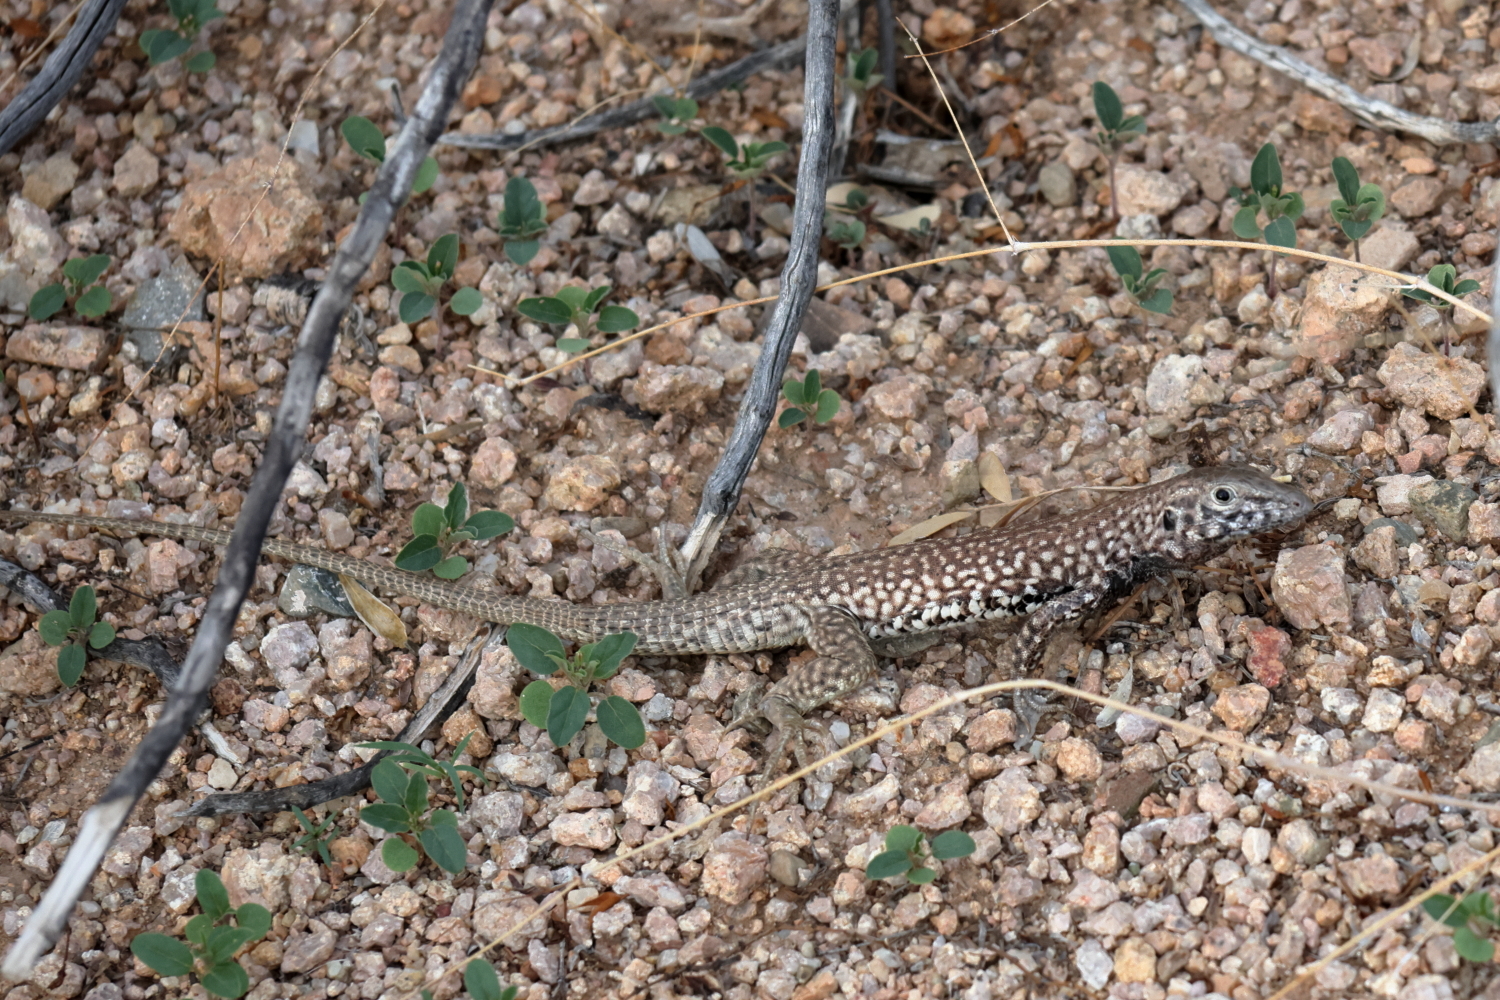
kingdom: Animalia
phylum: Chordata
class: Squamata
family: Teiidae
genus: Aspidoscelis
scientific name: Aspidoscelis tigris
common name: Tiger whiptail
